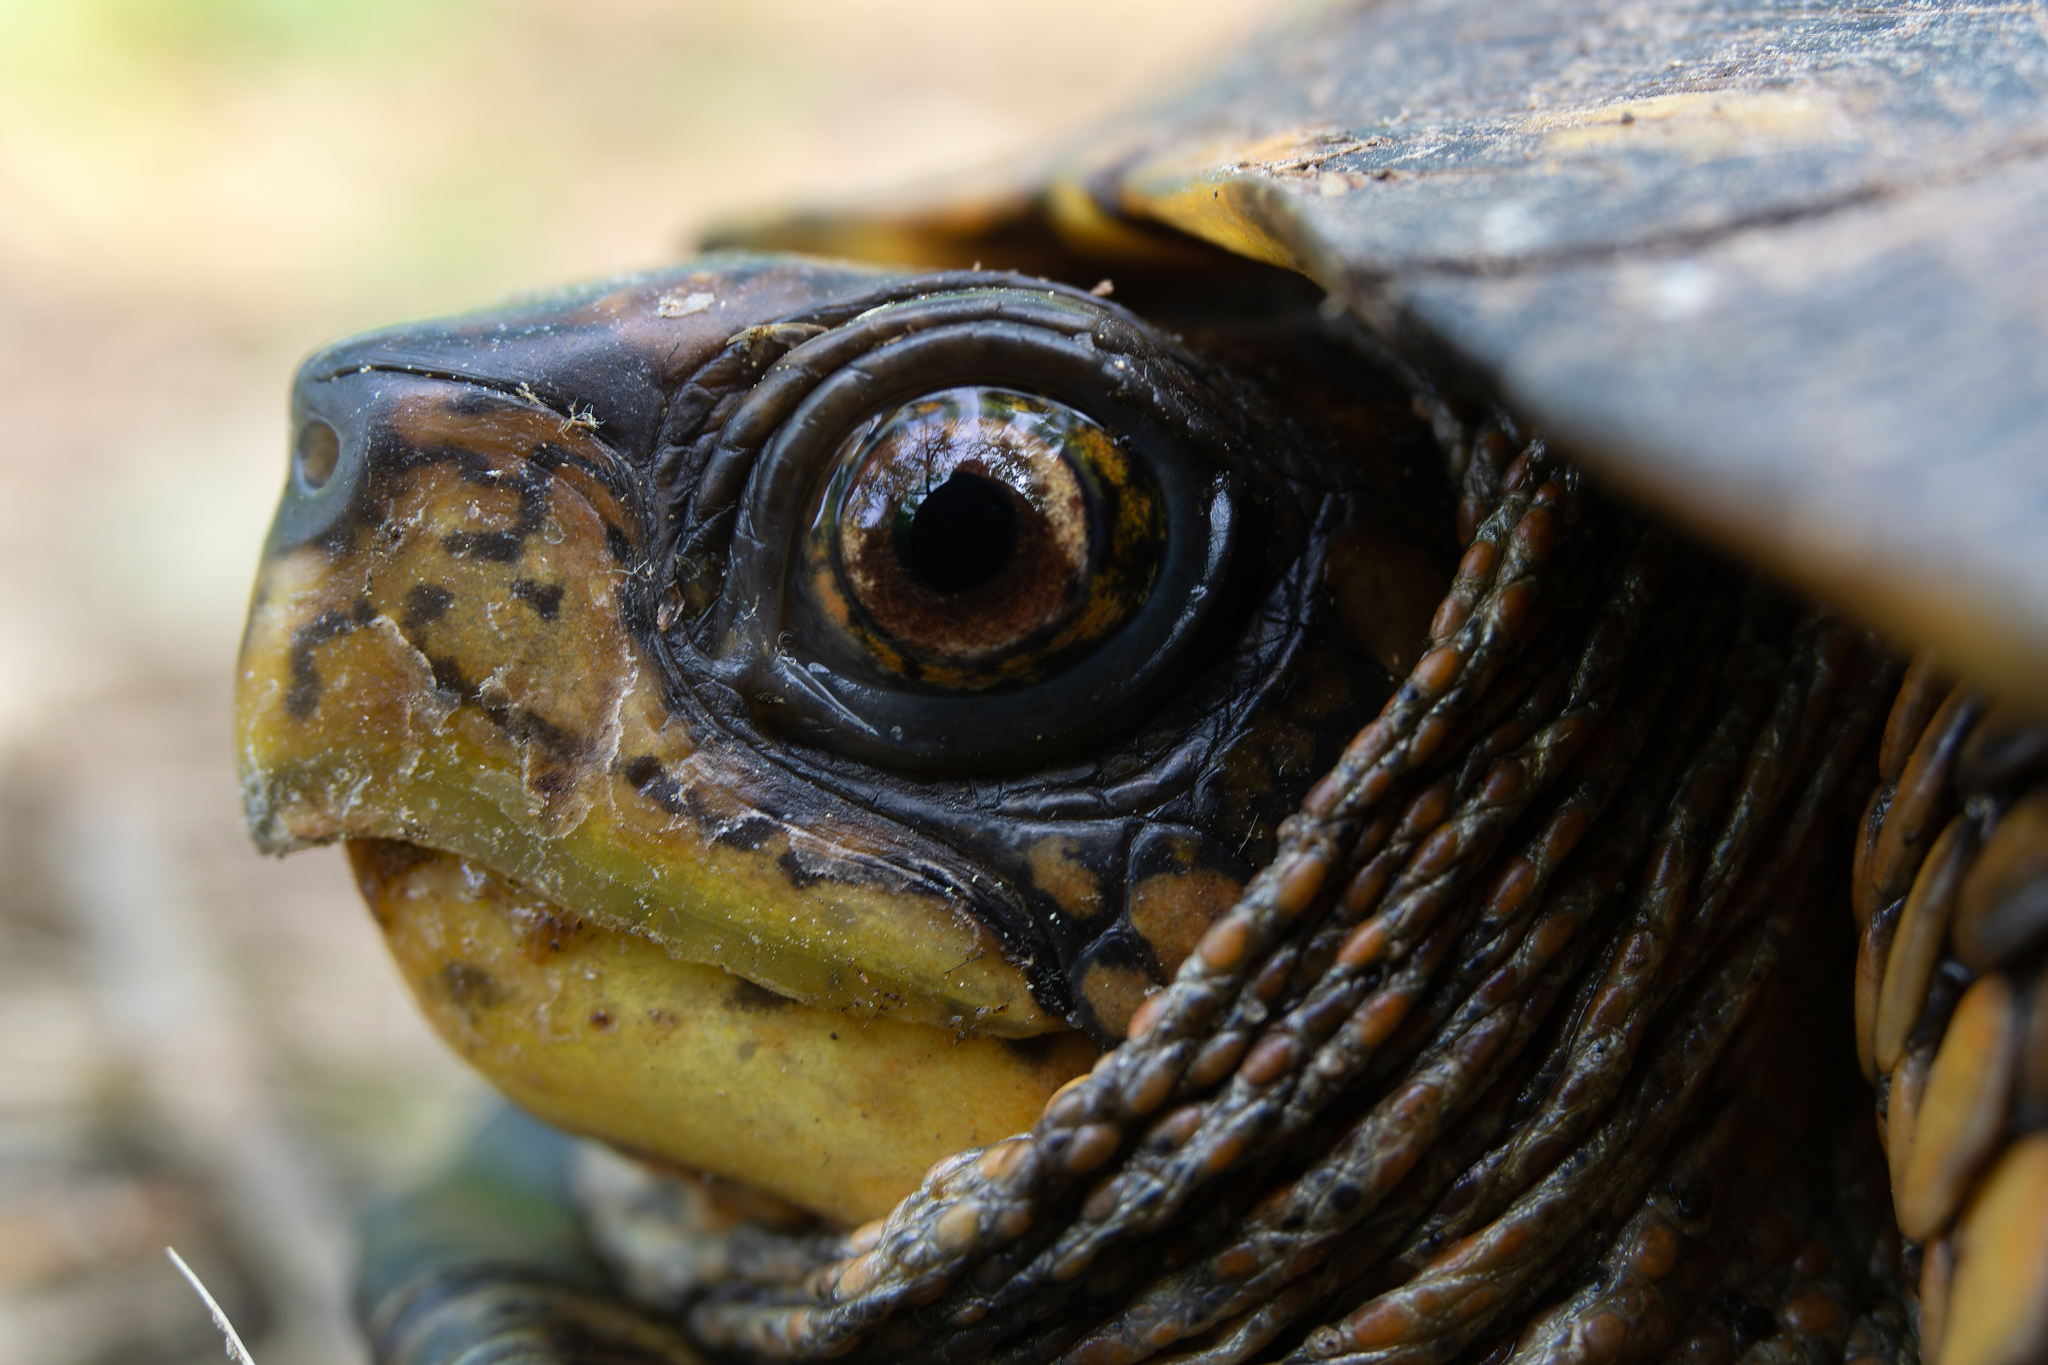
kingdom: Animalia
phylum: Chordata
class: Testudines
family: Emydidae
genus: Terrapene
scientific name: Terrapene carolina
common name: Common box turtle
